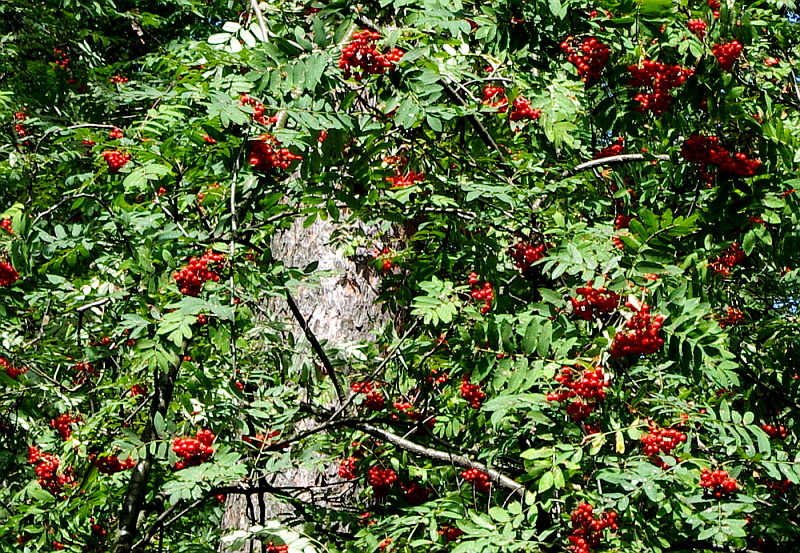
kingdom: Plantae
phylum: Tracheophyta
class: Magnoliopsida
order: Rosales
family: Rosaceae
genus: Sorbus
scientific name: Sorbus aucuparia
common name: Rowan
